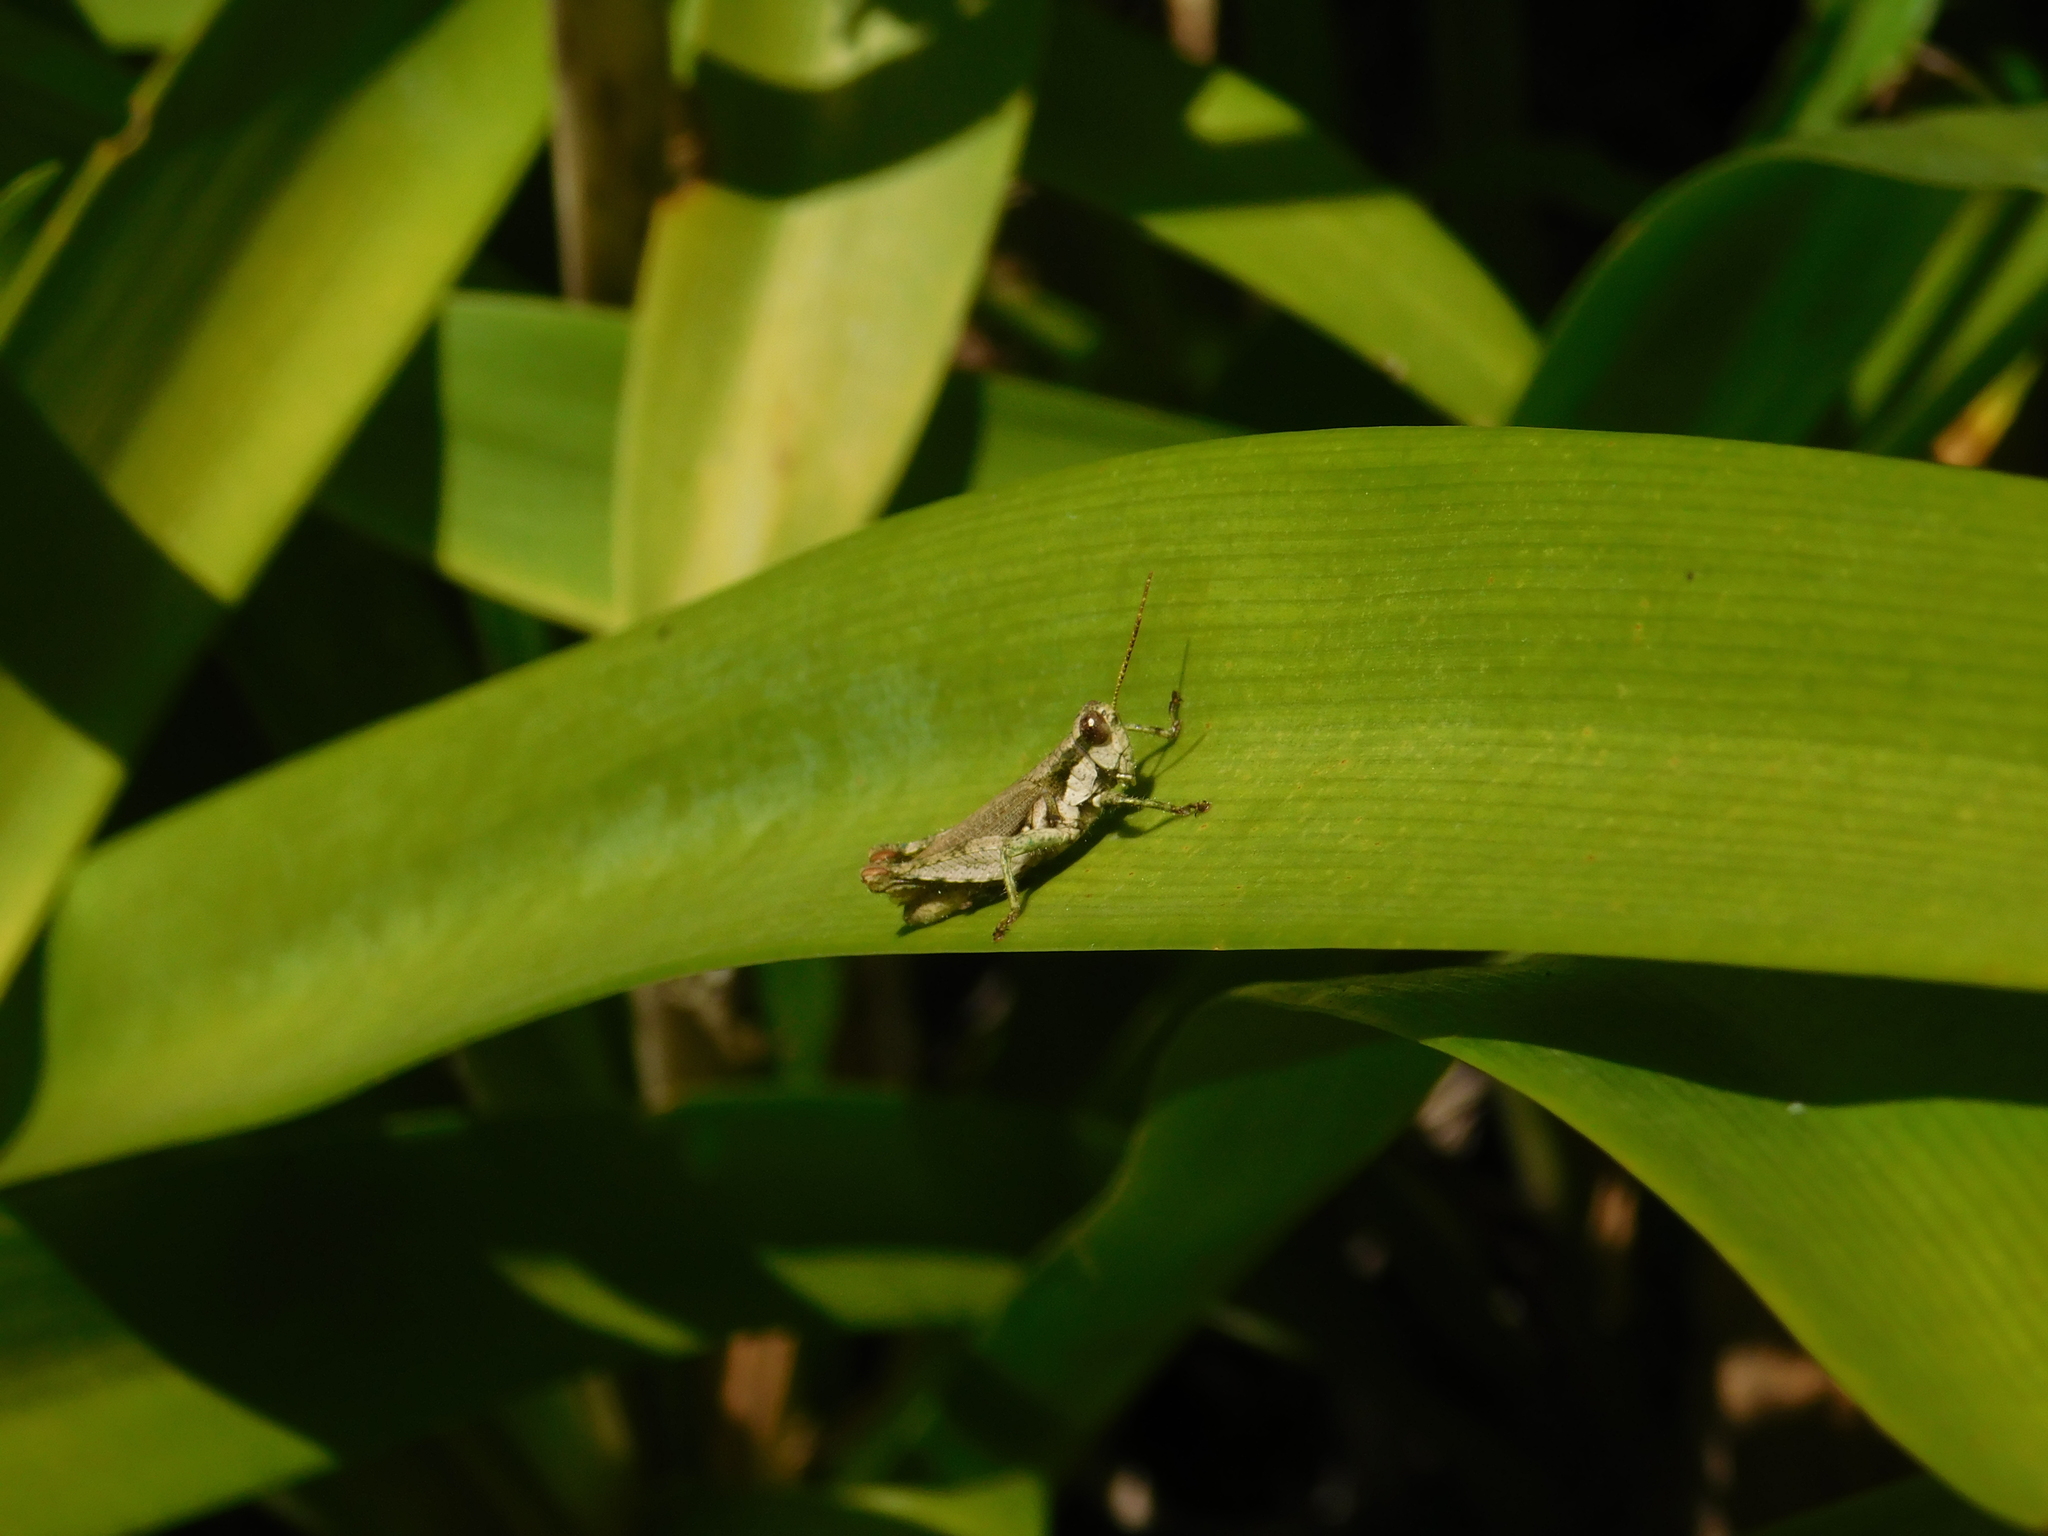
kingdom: Animalia
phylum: Arthropoda
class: Insecta
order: Orthoptera
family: Acrididae
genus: Ronderosia
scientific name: Ronderosia bergii
